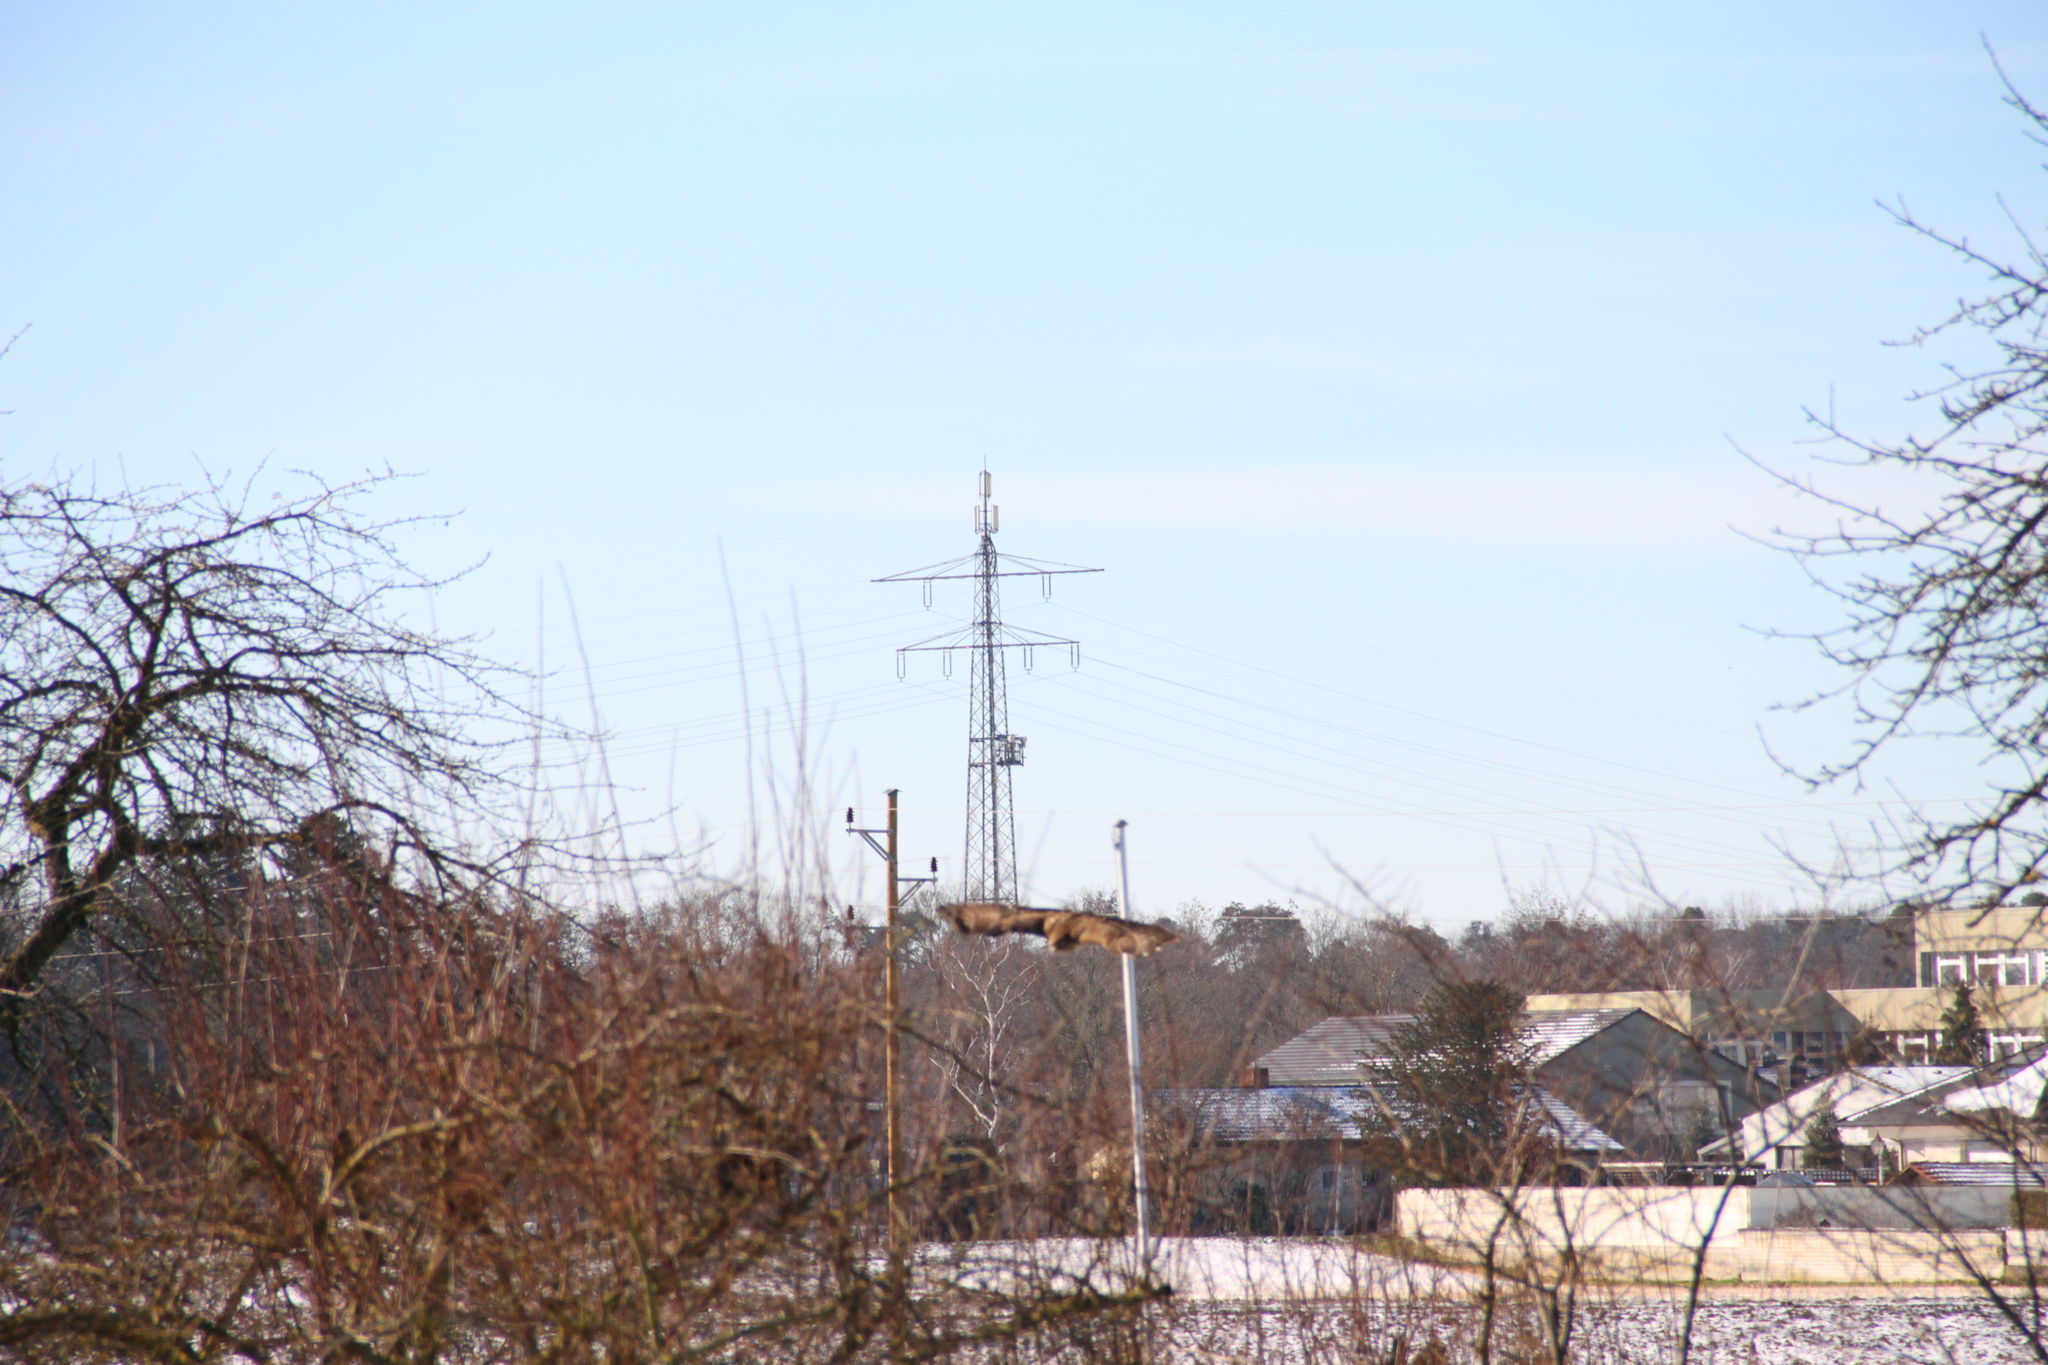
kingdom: Animalia
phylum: Chordata
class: Aves
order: Accipitriformes
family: Accipitridae
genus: Buteo
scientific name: Buteo buteo
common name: Common buzzard
